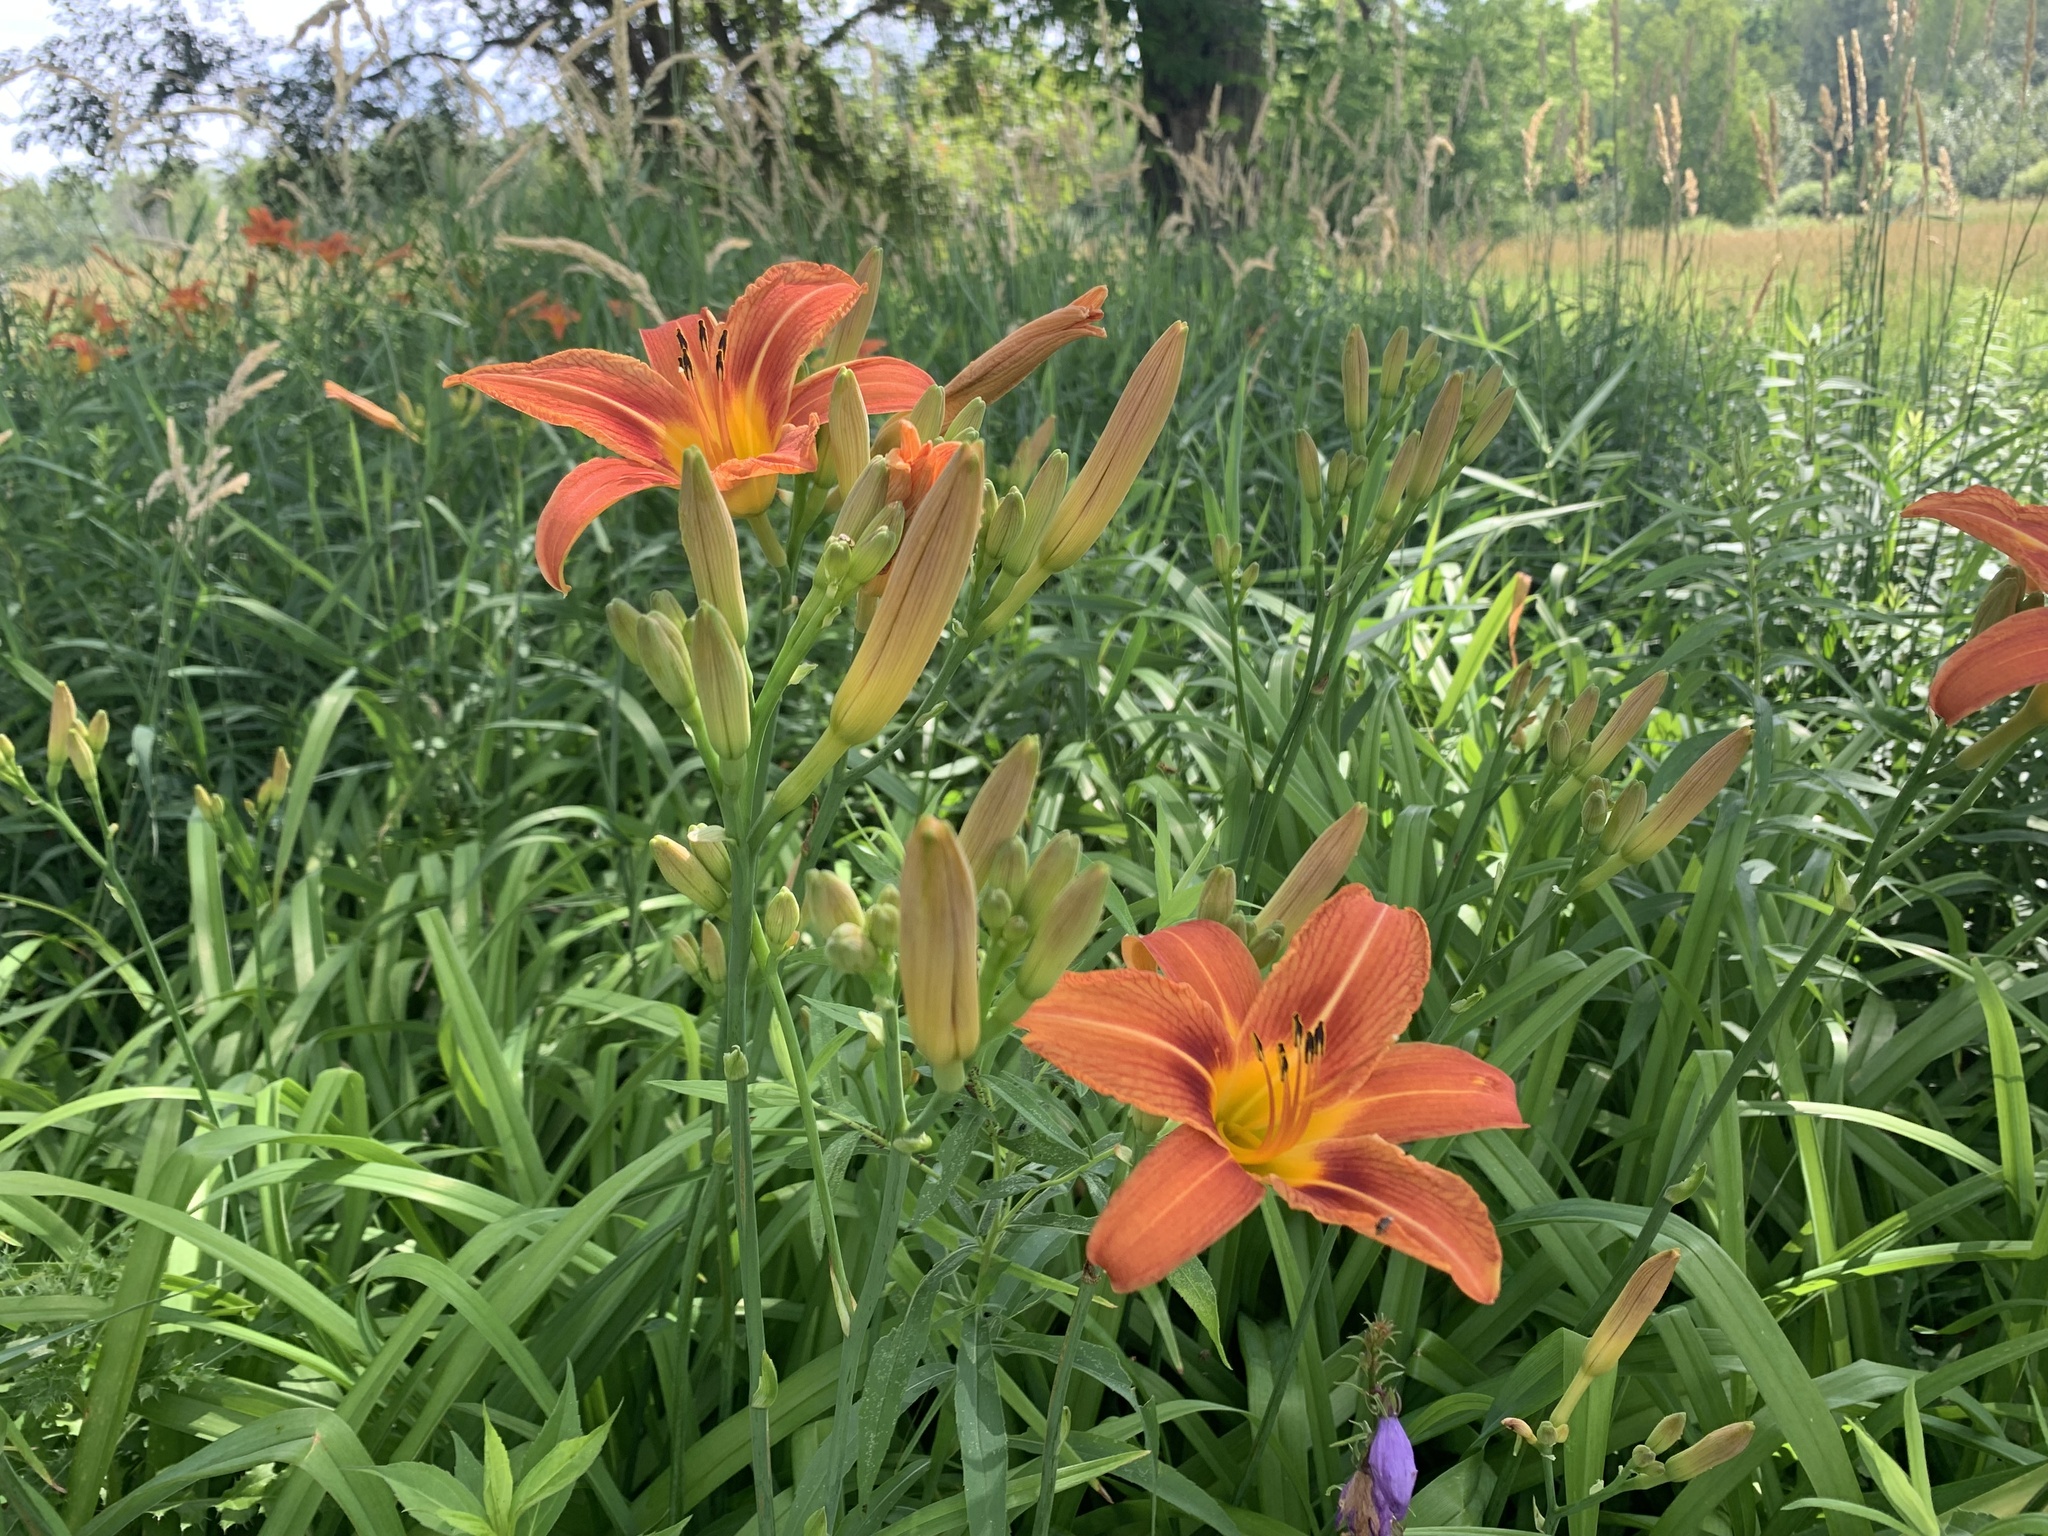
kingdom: Plantae
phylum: Tracheophyta
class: Liliopsida
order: Asparagales
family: Asphodelaceae
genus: Hemerocallis
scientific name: Hemerocallis fulva
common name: Orange day-lily
